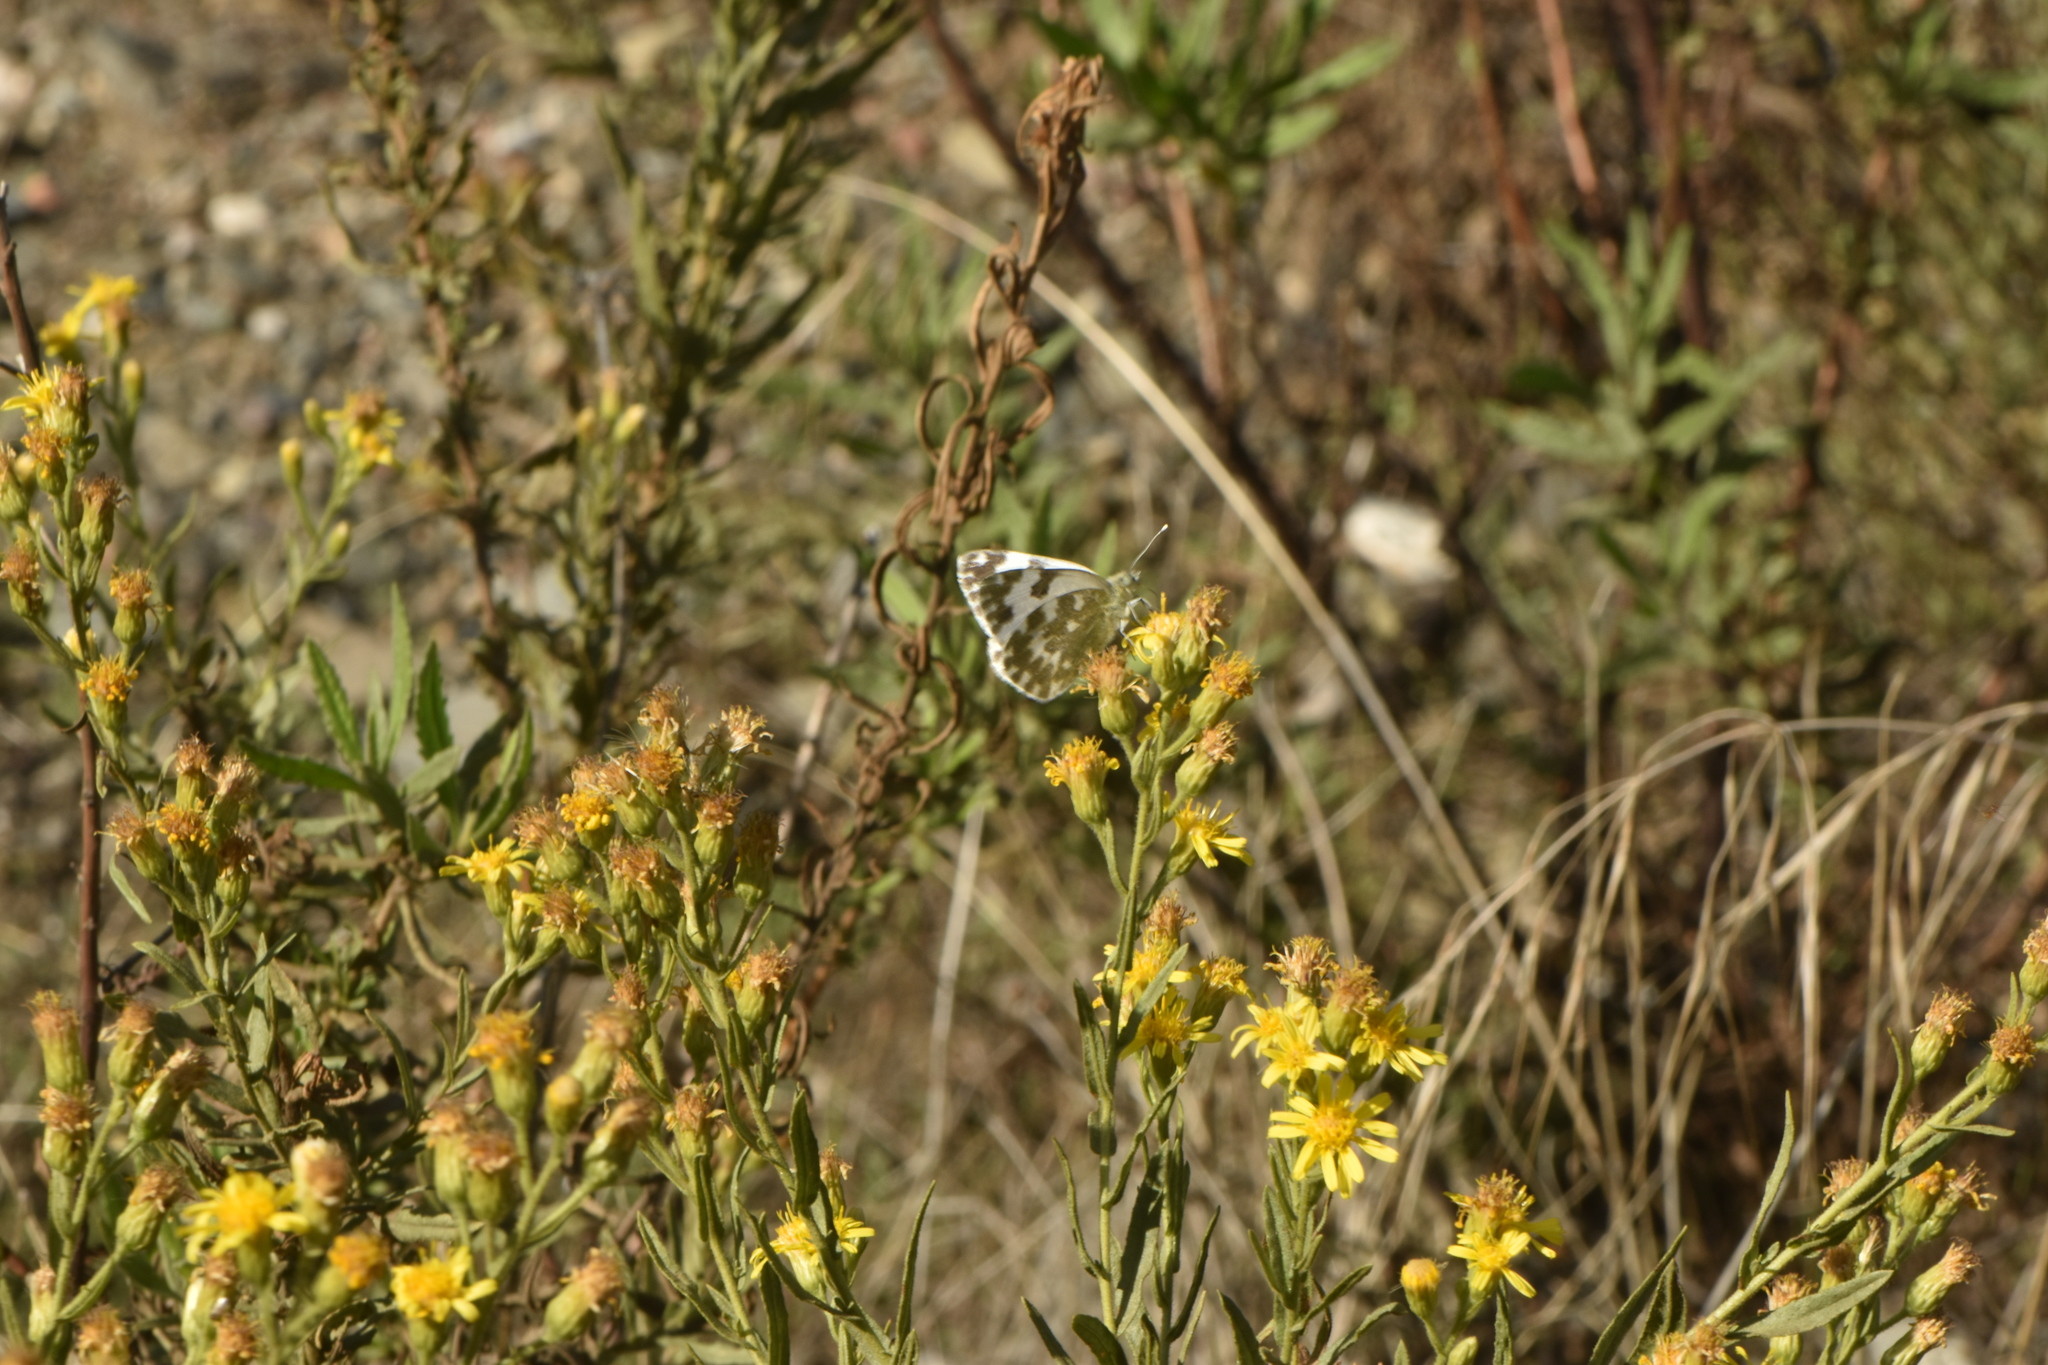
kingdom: Animalia
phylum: Arthropoda
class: Insecta
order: Lepidoptera
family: Pieridae
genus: Pontia
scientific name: Pontia daplidice
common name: Bath white
